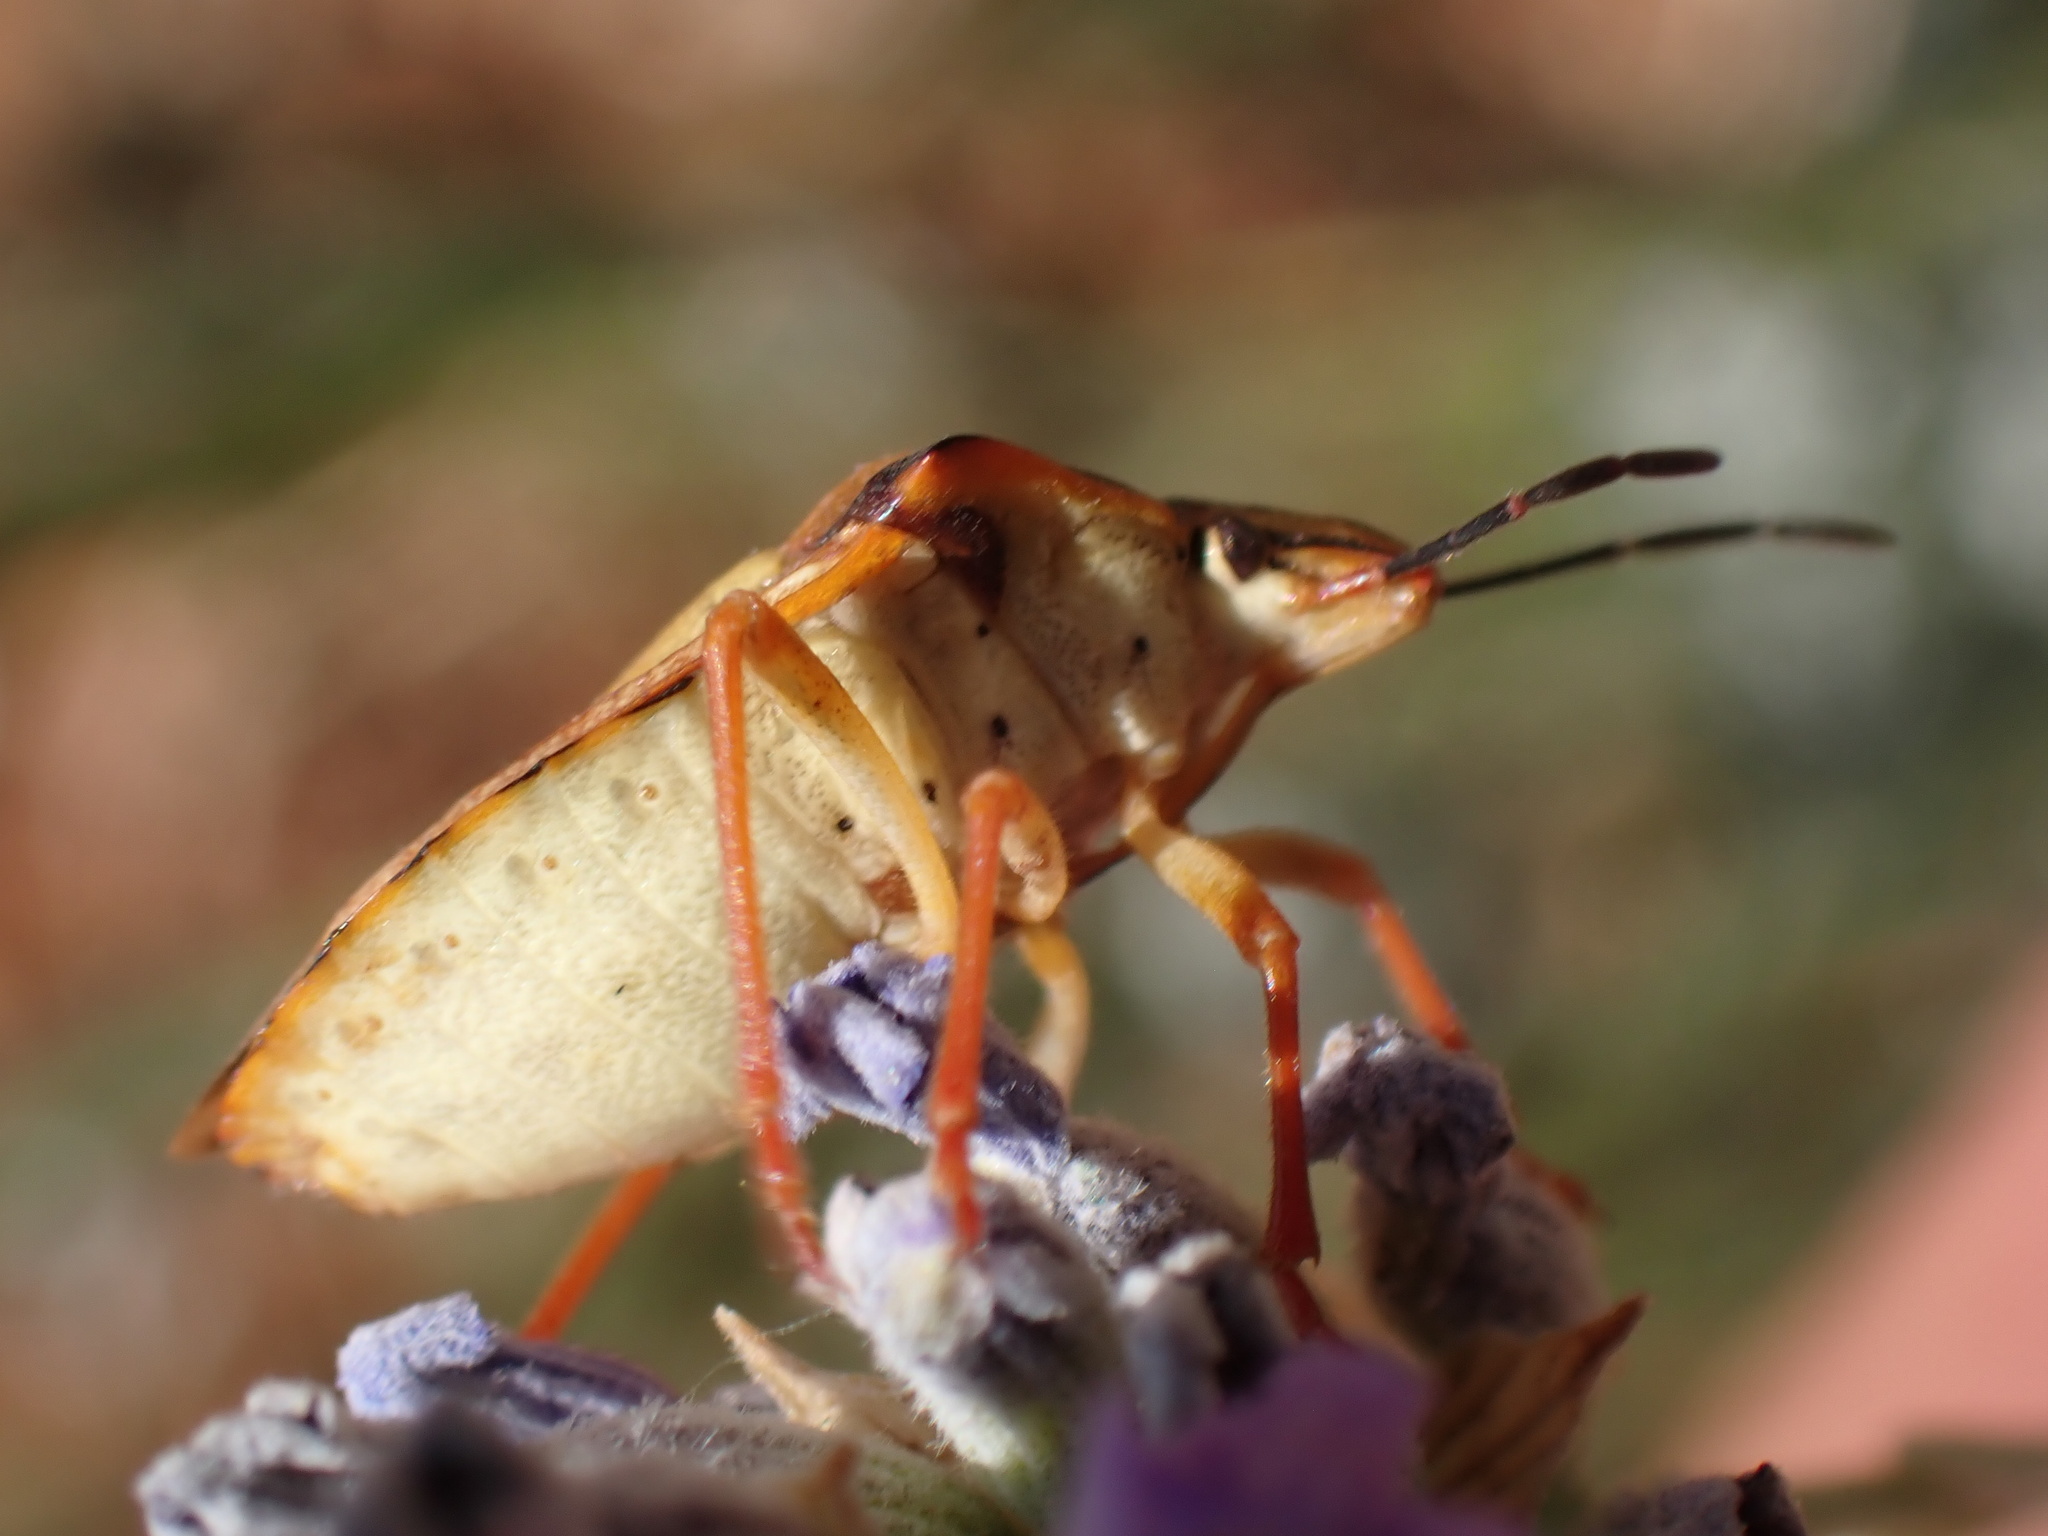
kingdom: Animalia
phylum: Arthropoda
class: Insecta
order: Hemiptera
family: Pentatomidae
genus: Carpocoris
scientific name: Carpocoris mediterraneus
